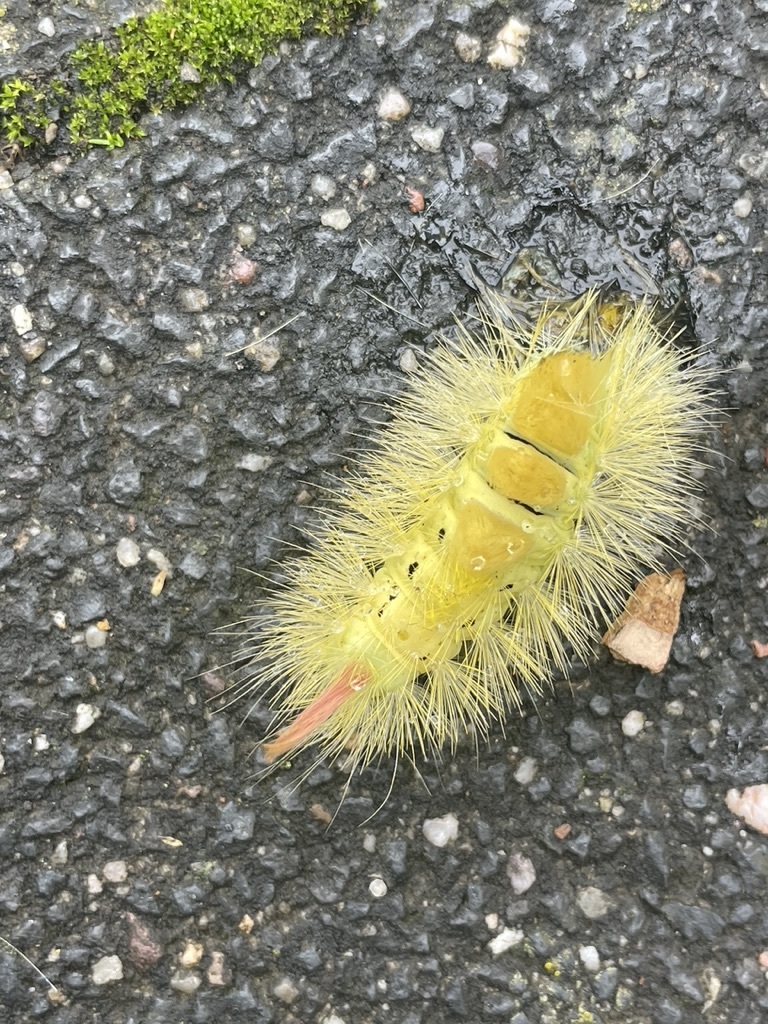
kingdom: Animalia
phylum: Arthropoda
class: Insecta
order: Lepidoptera
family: Erebidae
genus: Calliteara
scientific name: Calliteara pudibunda
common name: Pale tussock
